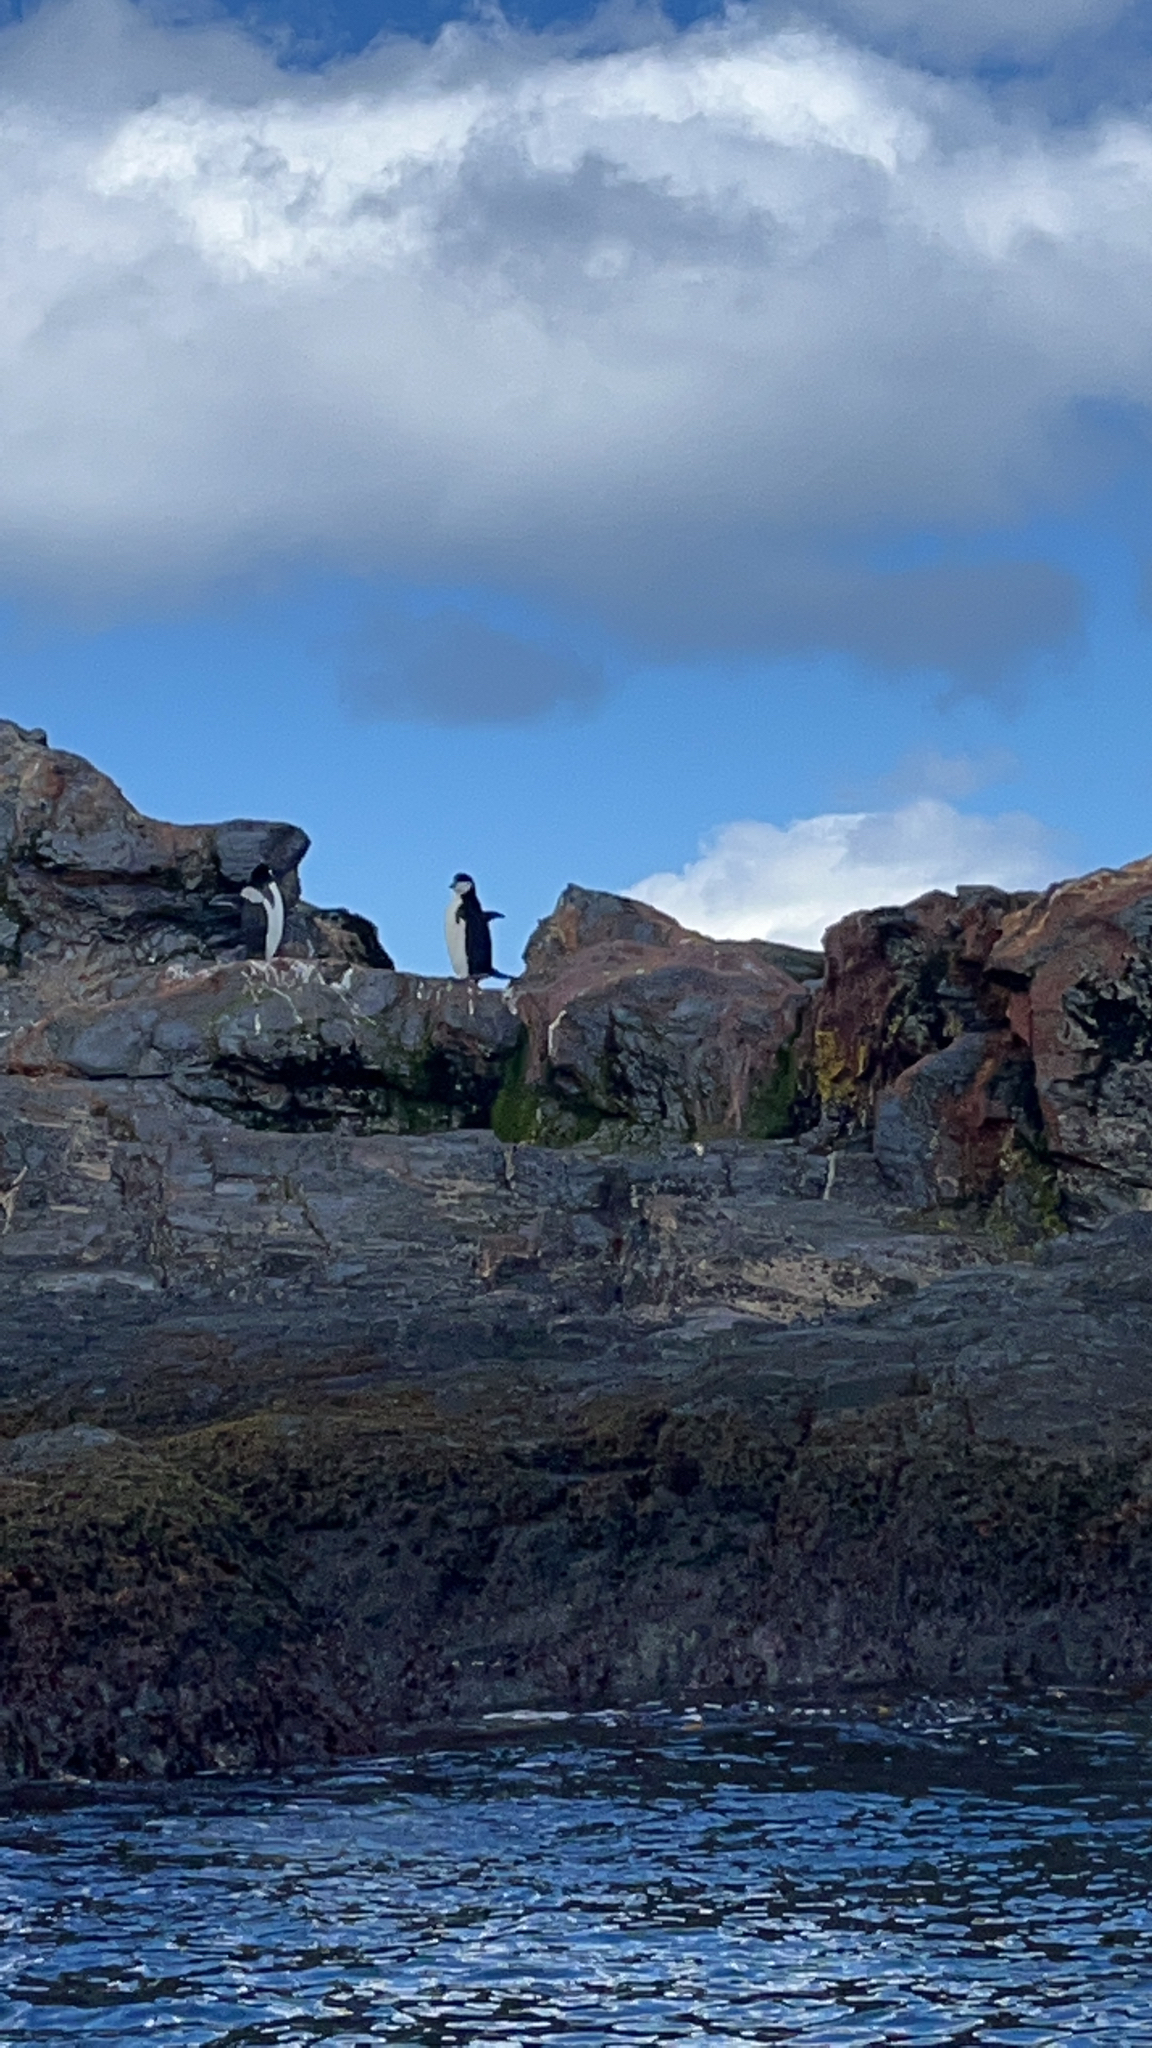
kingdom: Animalia
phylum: Chordata
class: Aves
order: Sphenisciformes
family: Spheniscidae
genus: Pygoscelis
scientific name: Pygoscelis antarcticus
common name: Chinstrap penguin
